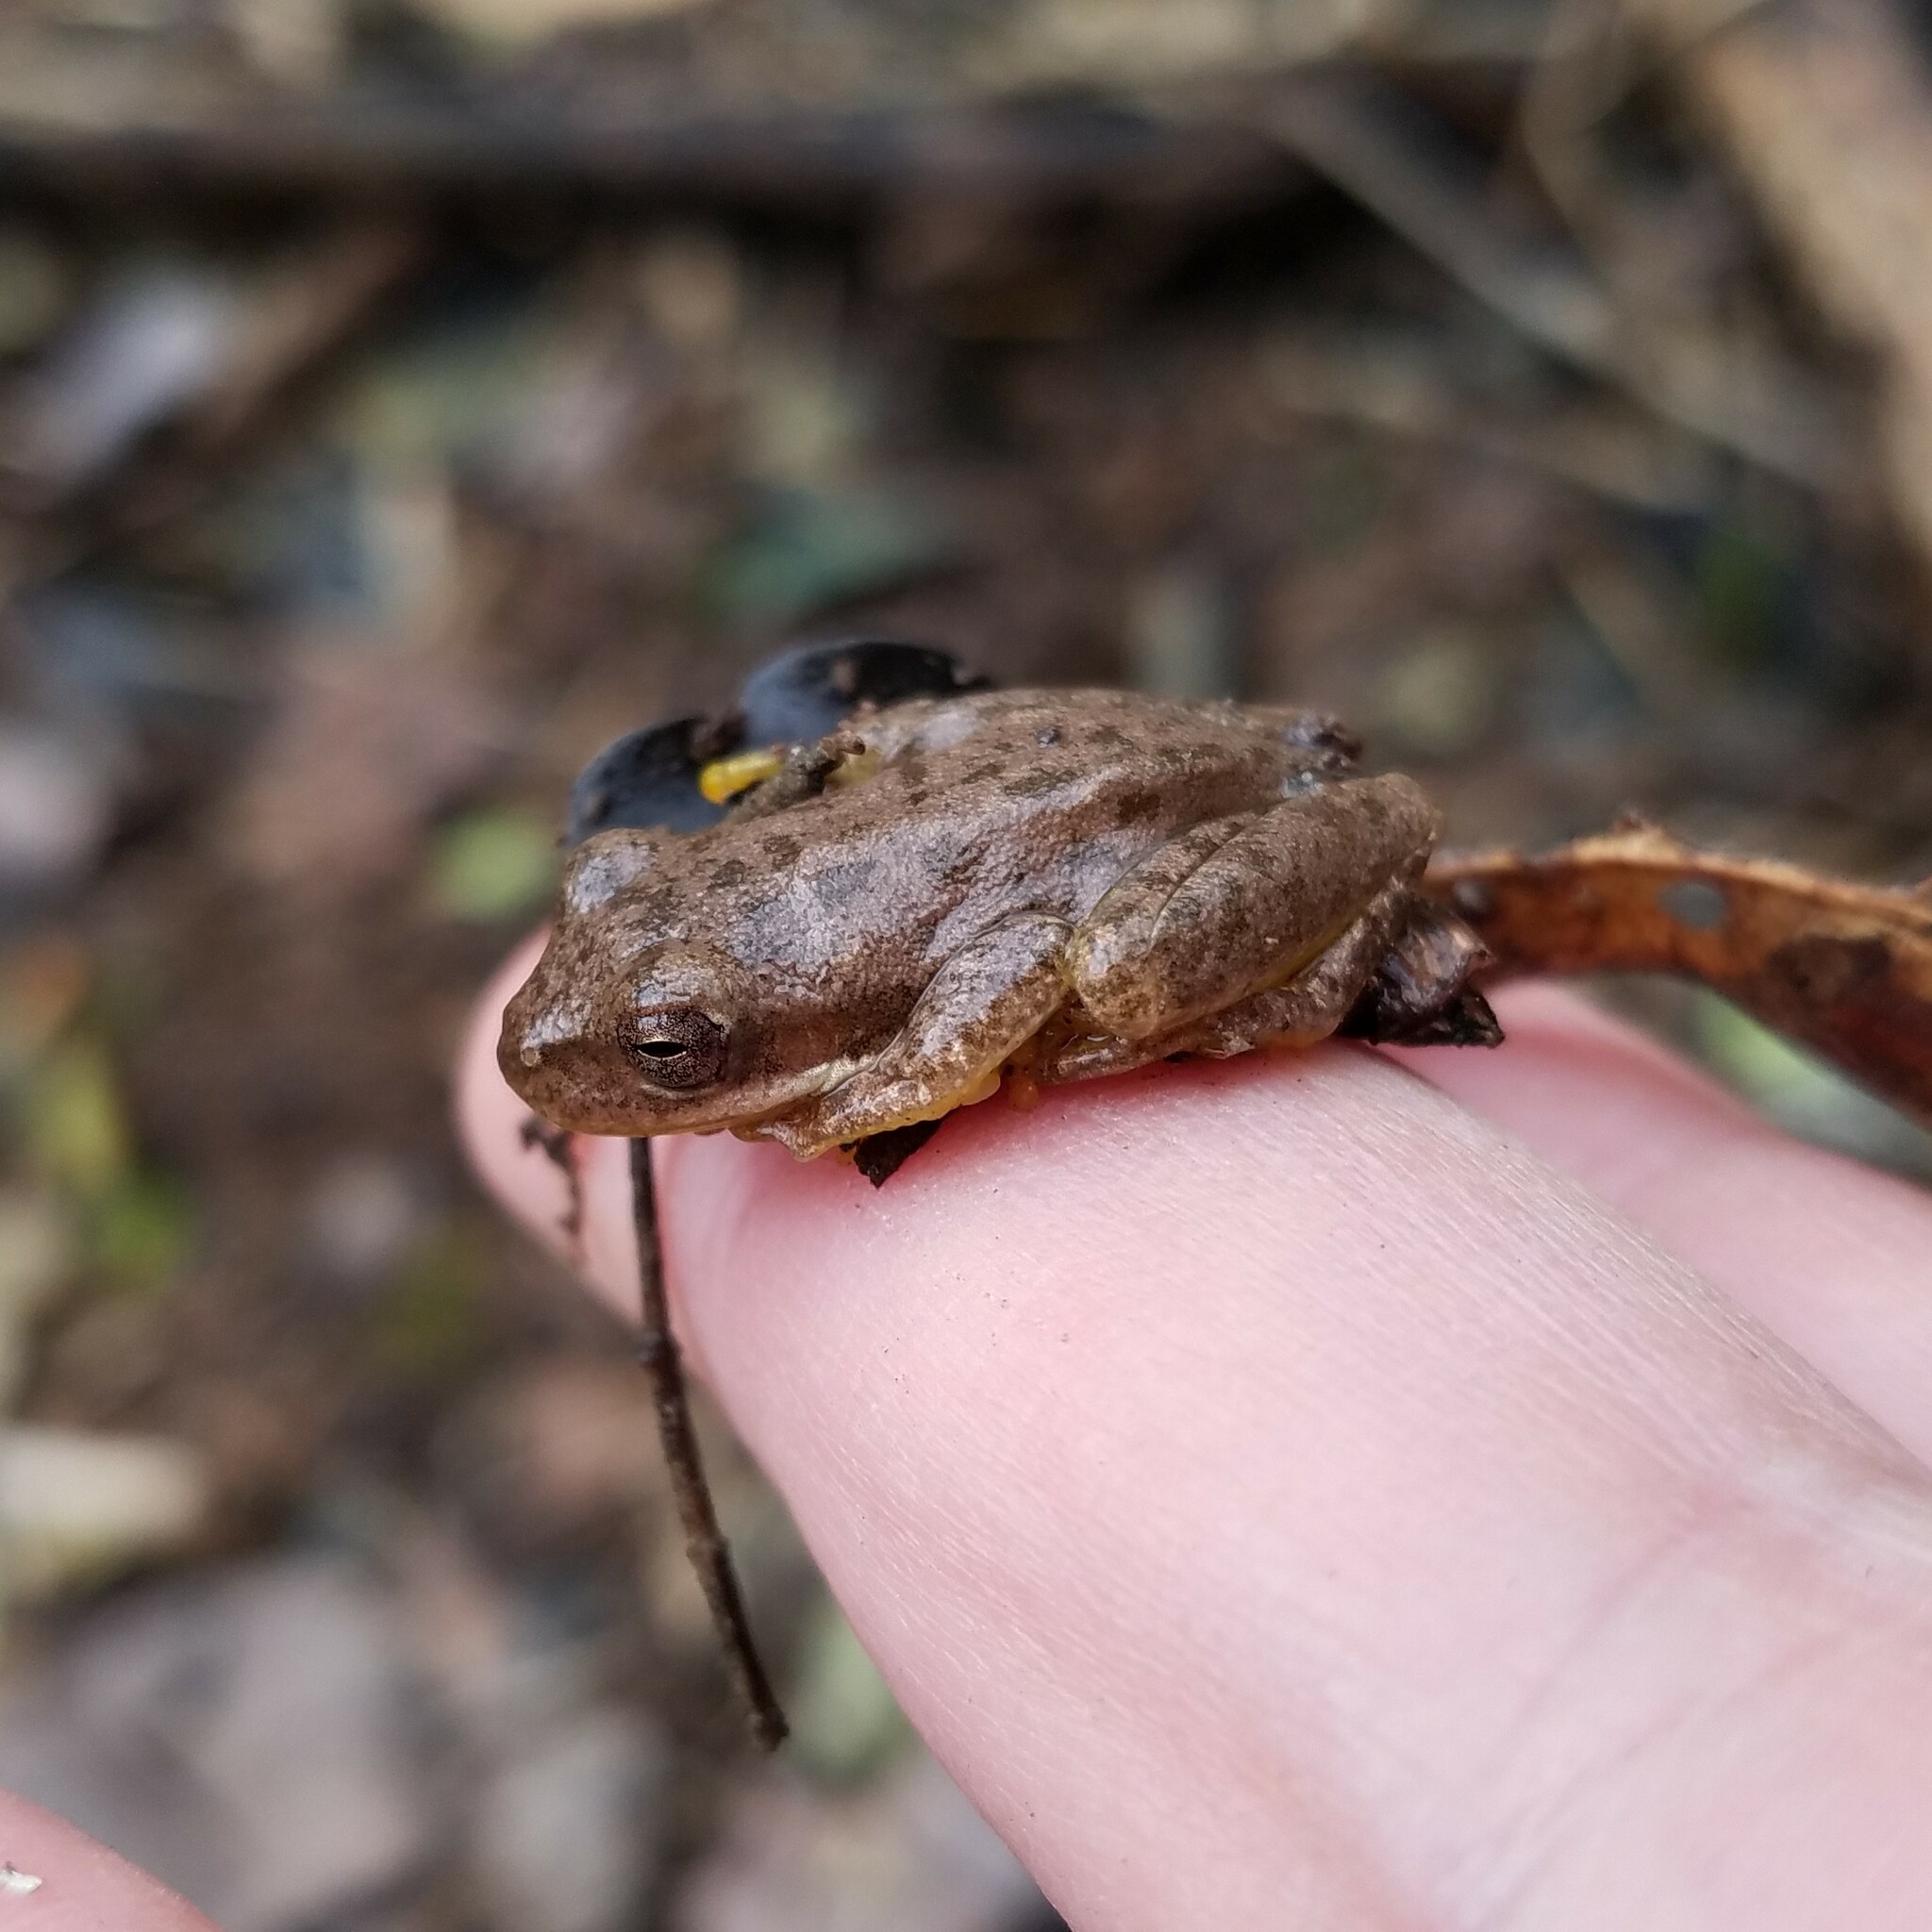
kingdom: Animalia
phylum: Chordata
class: Amphibia
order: Anura
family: Hylidae
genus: Dryophytes
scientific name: Dryophytes squirellus
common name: Squirrel treefrog
